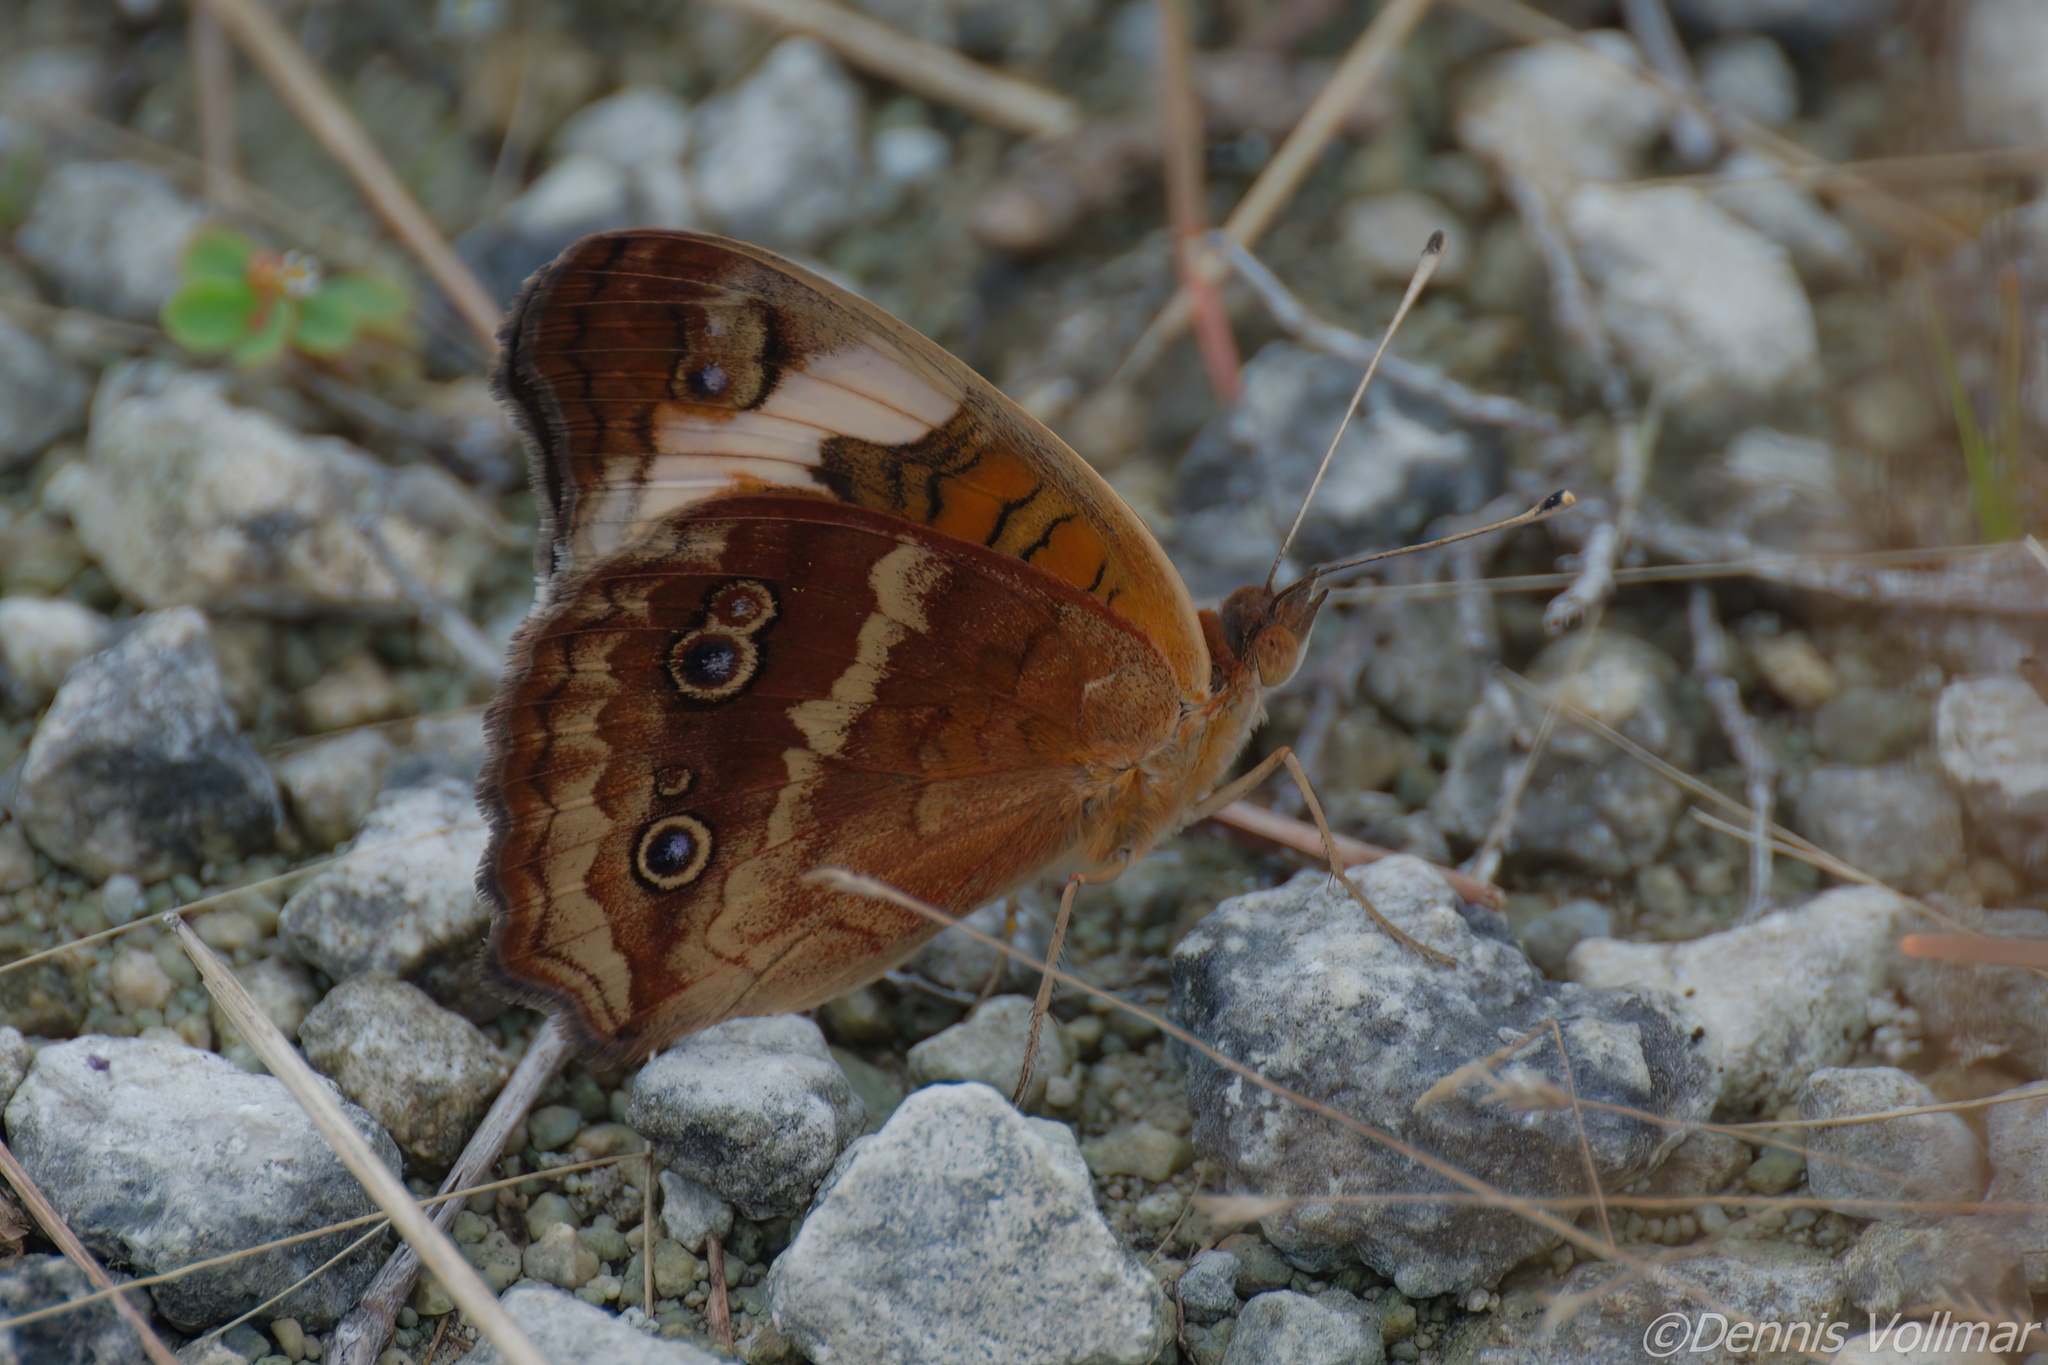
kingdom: Animalia
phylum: Arthropoda
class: Insecta
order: Lepidoptera
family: Nymphalidae
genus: Junonia
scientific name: Junonia lavinia
